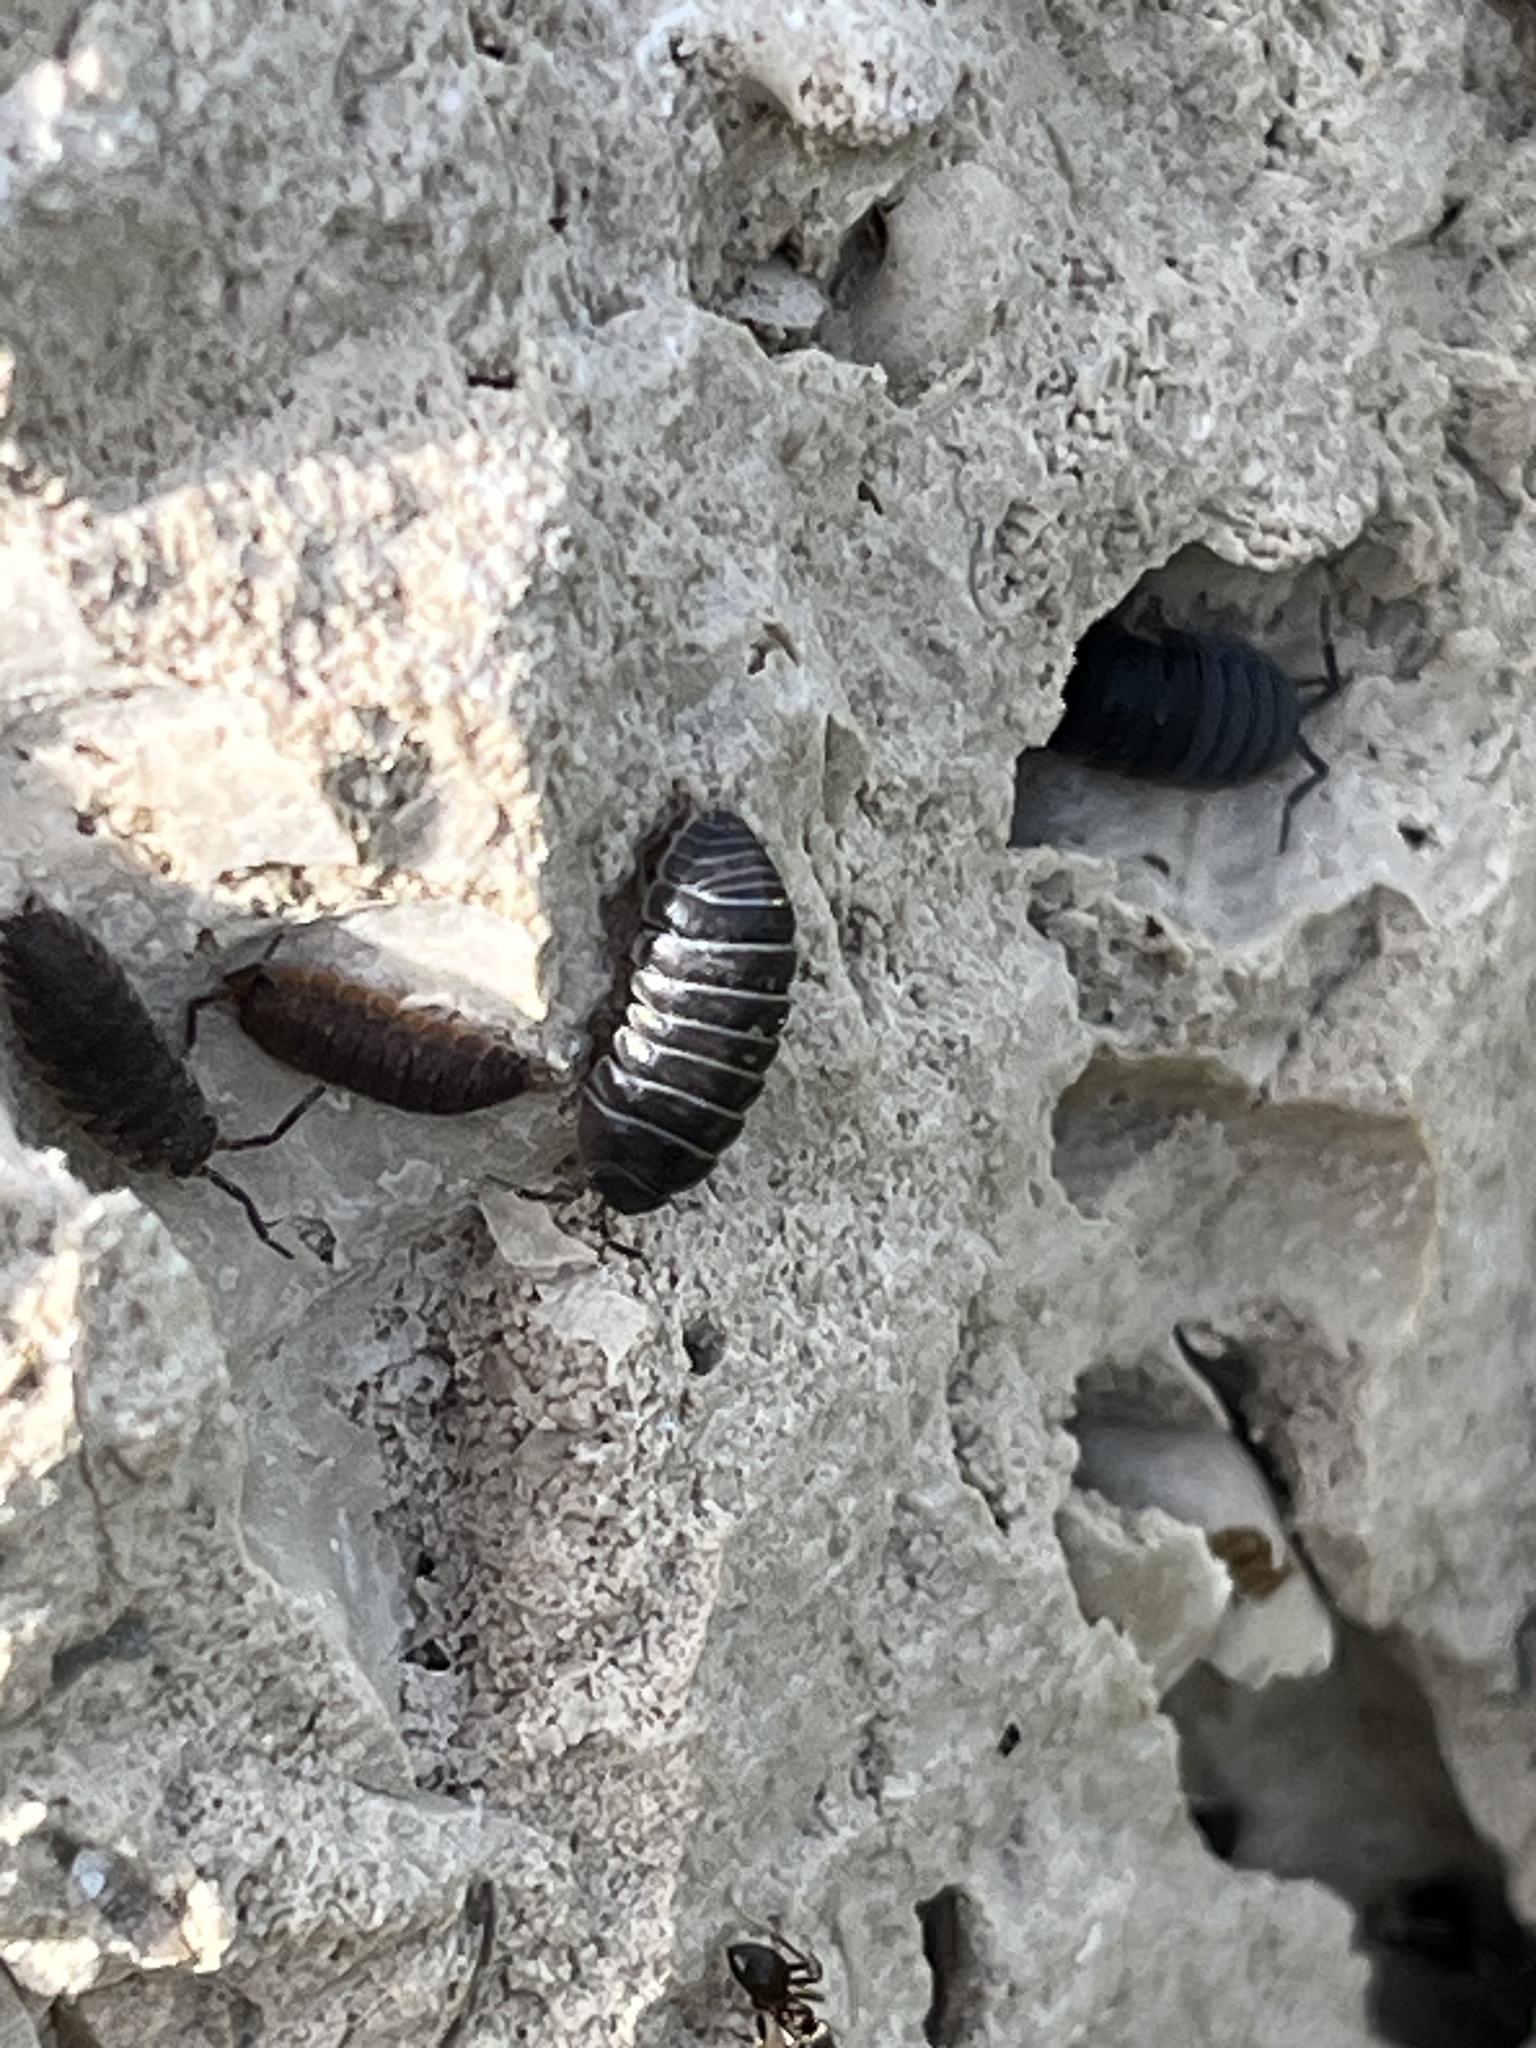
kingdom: Animalia
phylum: Arthropoda
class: Malacostraca
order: Isopoda
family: Armadillidiidae
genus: Armadillidium
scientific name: Armadillidium vulgare
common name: Common pill woodlouse
